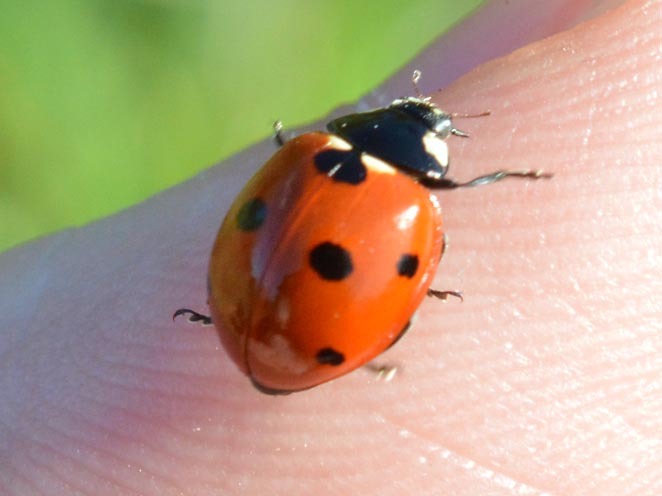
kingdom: Animalia
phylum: Arthropoda
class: Insecta
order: Coleoptera
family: Coccinellidae
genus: Coccinella
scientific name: Coccinella septempunctata
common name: Sevenspotted lady beetle
